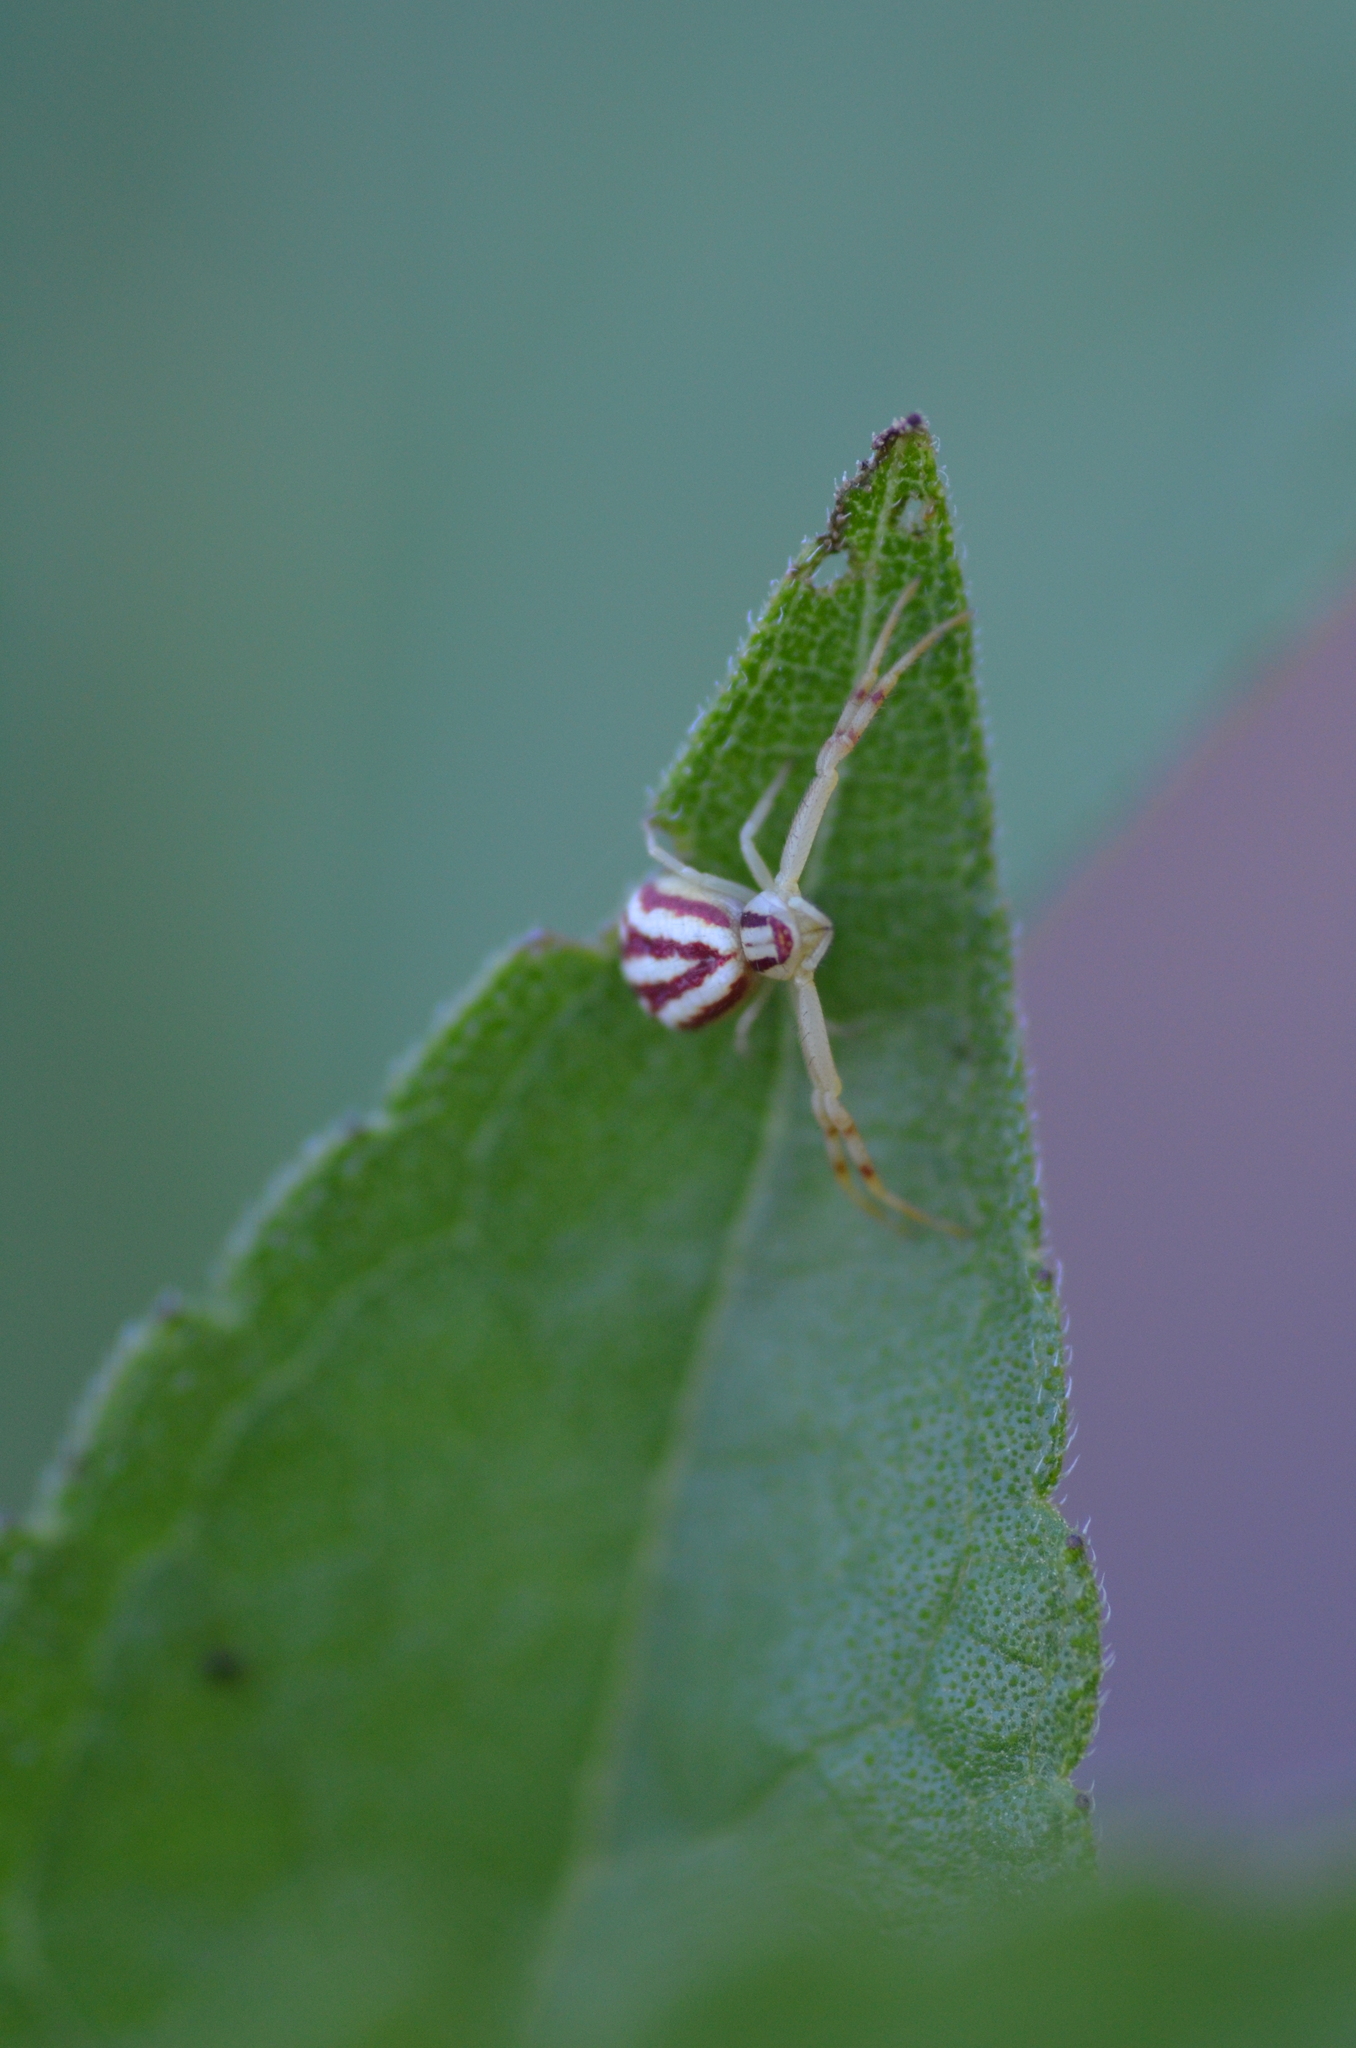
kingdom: Animalia
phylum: Arthropoda
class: Arachnida
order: Araneae
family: Thomisidae
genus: Mecaphesa
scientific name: Mecaphesa schlingeri
